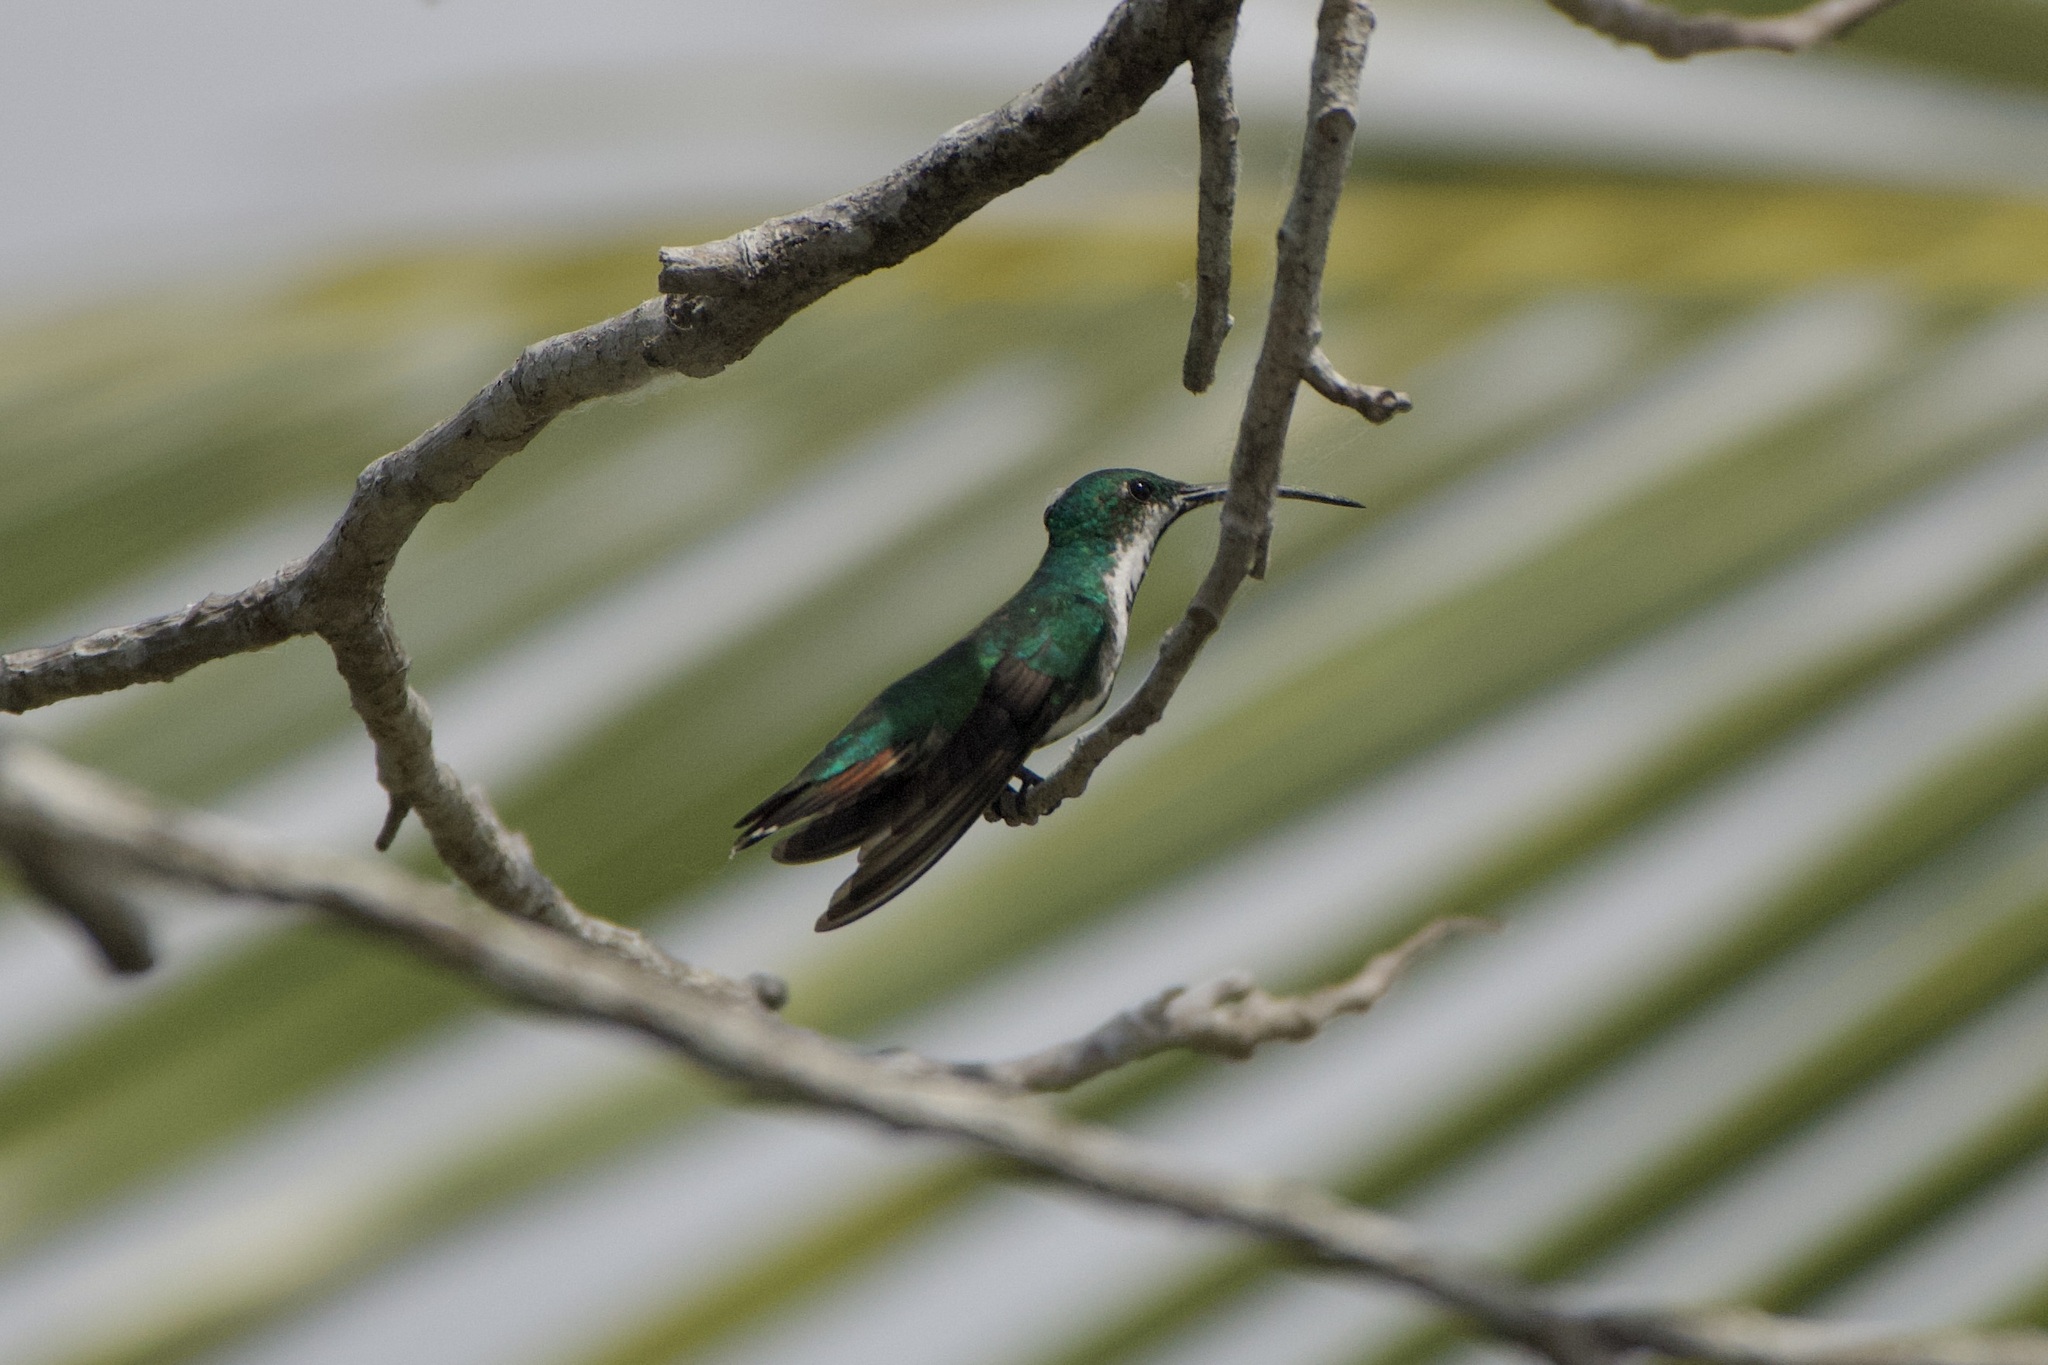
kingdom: Animalia
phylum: Chordata
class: Aves
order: Apodiformes
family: Trochilidae
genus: Anthracothorax
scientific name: Anthracothorax prevostii
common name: Green-breasted mango
